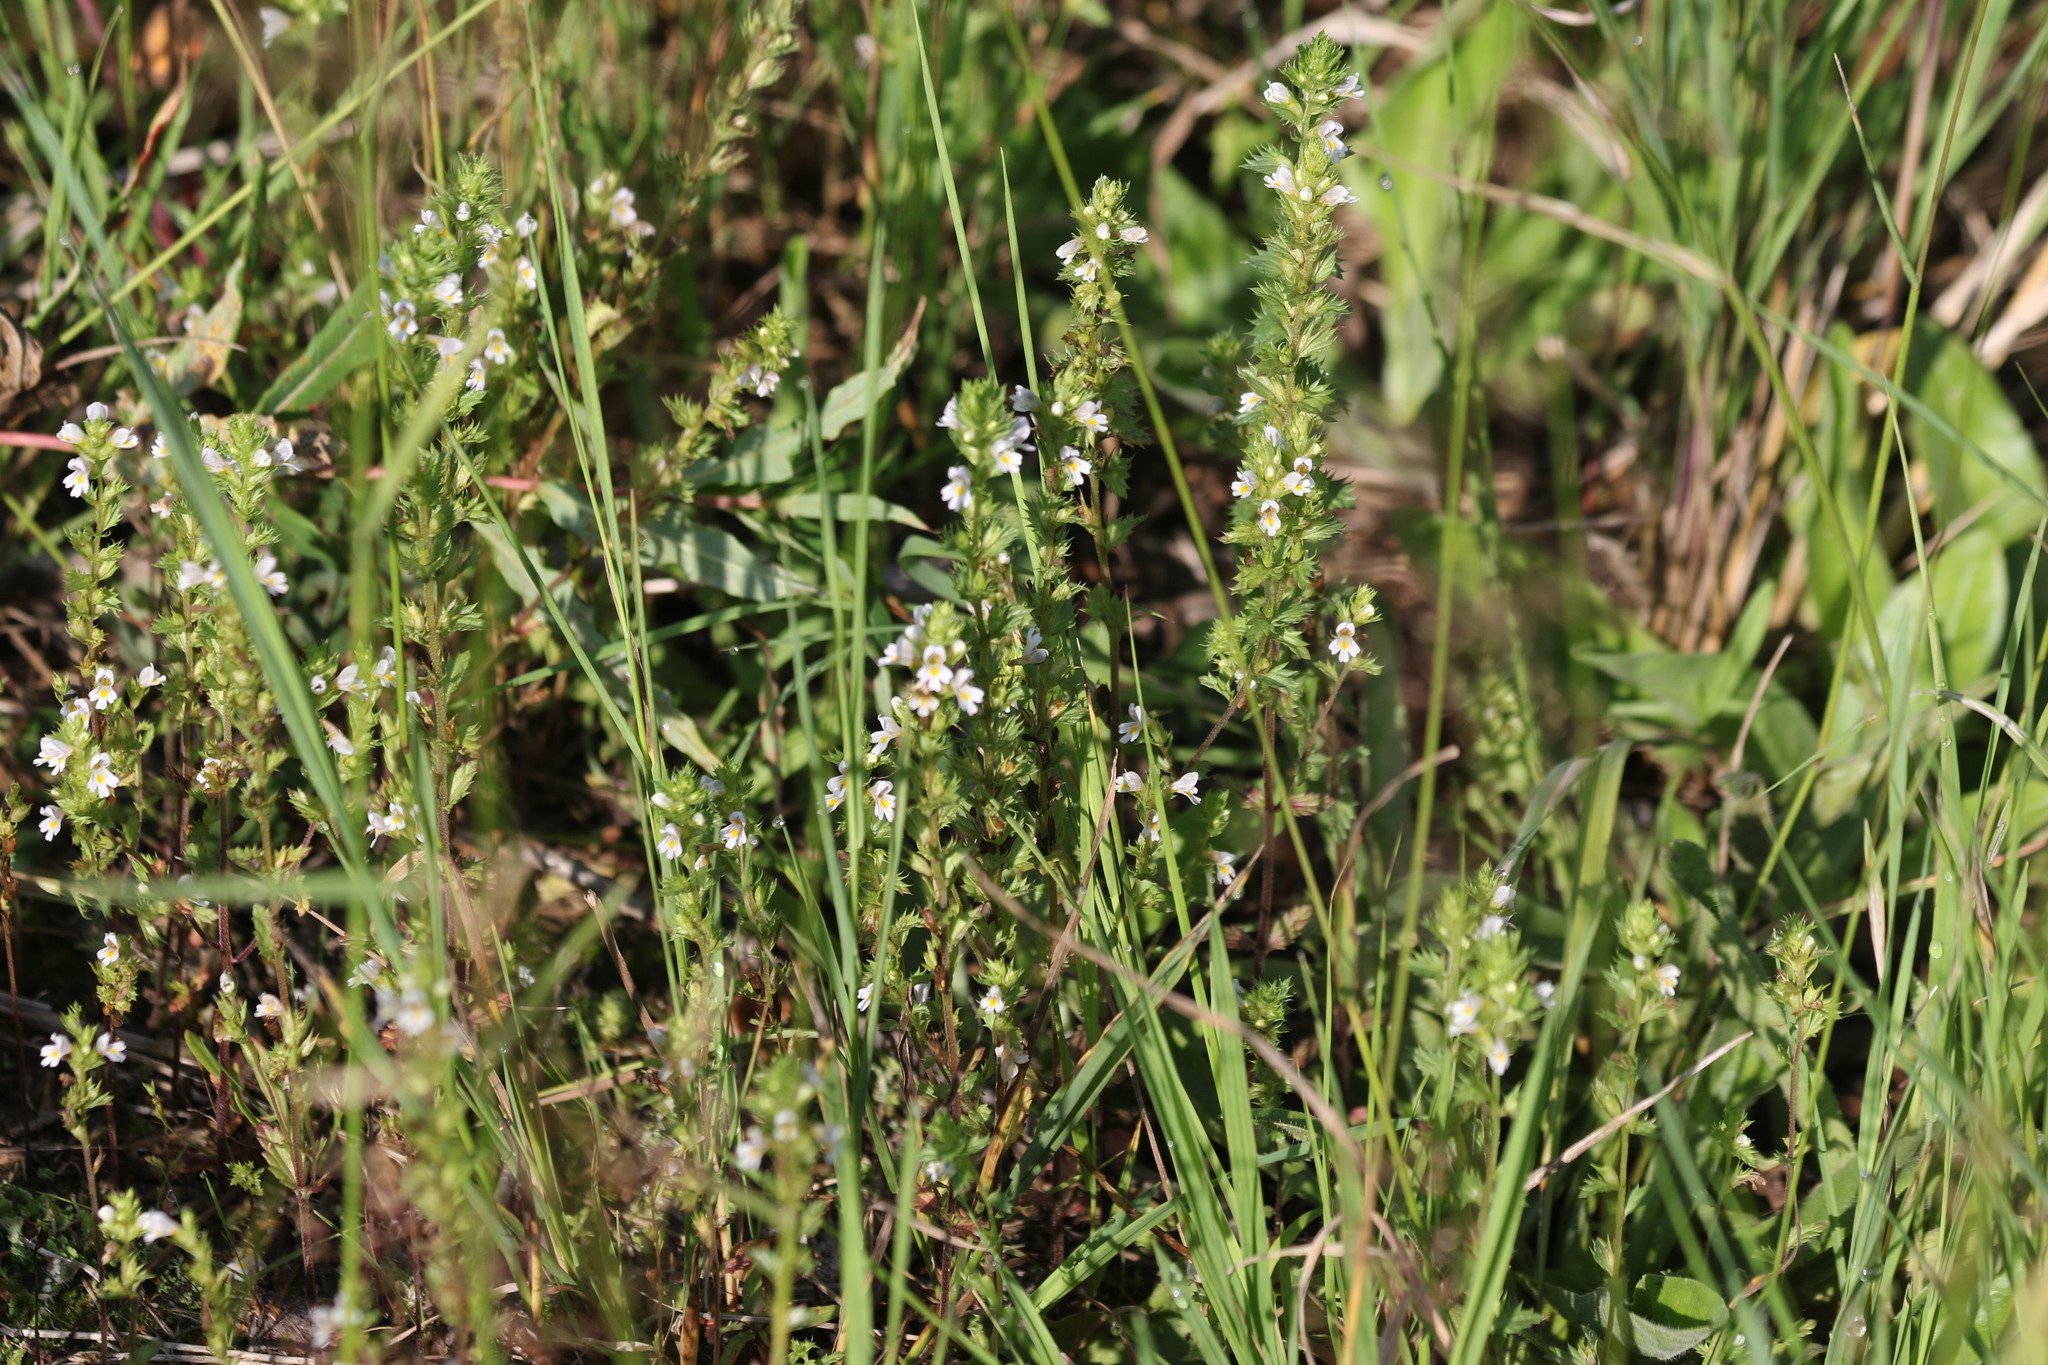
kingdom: Plantae
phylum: Tracheophyta
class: Magnoliopsida
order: Lamiales
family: Orobanchaceae
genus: Euphrasia
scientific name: Euphrasia stricta
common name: Drug eyebright
